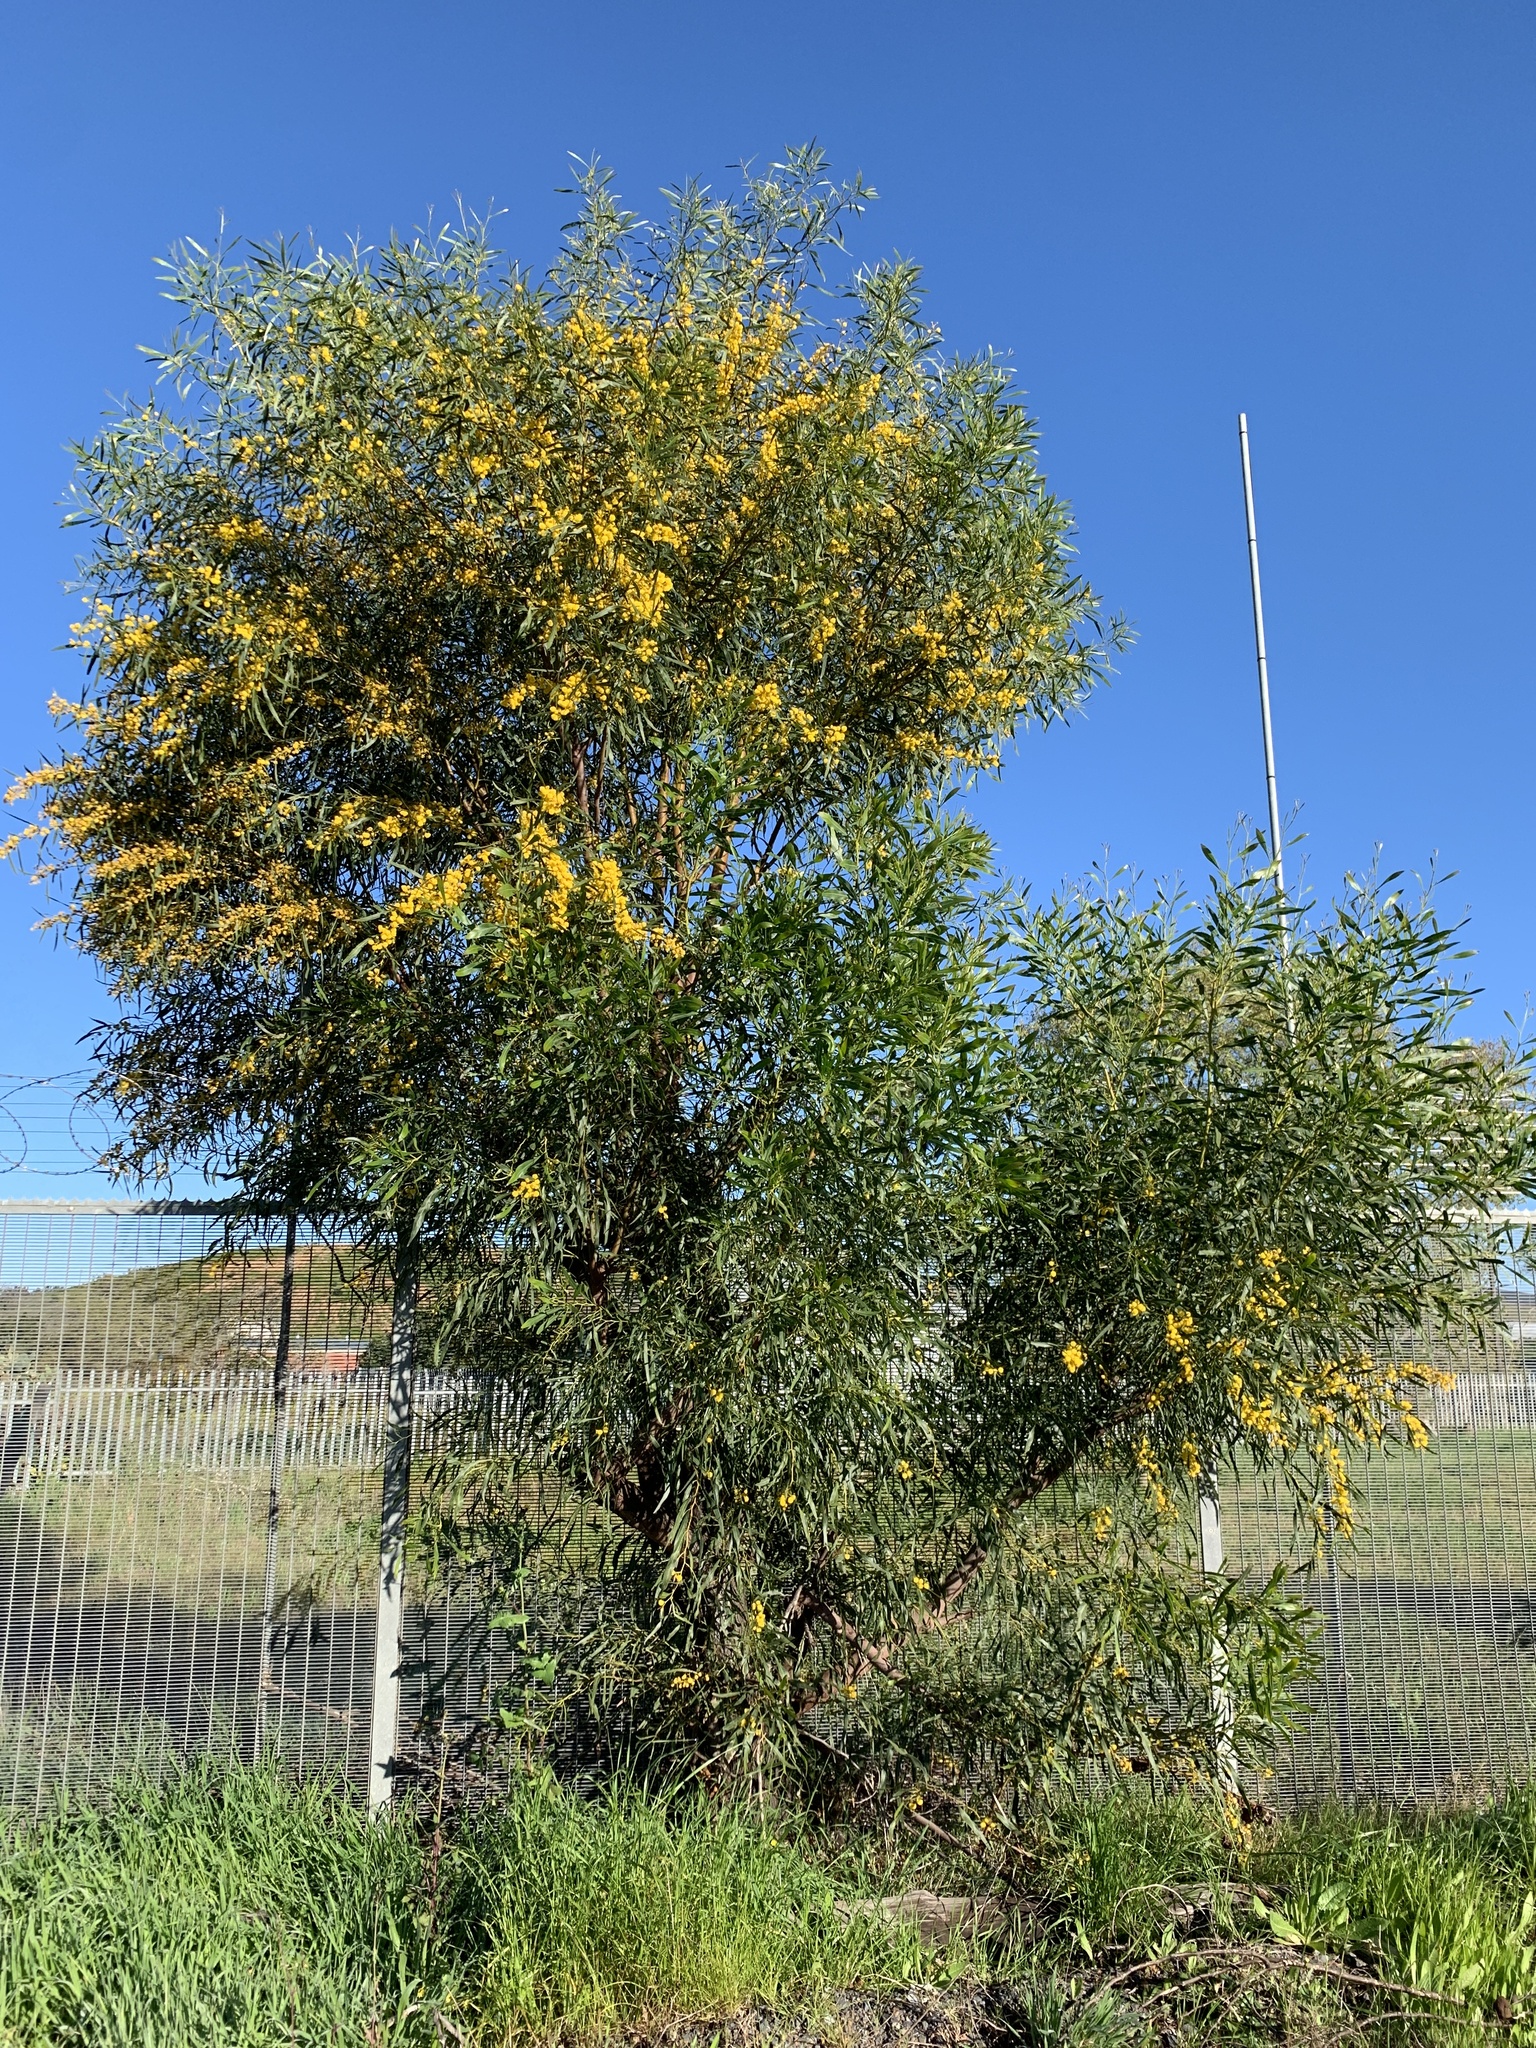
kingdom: Plantae
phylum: Tracheophyta
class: Magnoliopsida
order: Fabales
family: Fabaceae
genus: Acacia
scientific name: Acacia saligna
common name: Orange wattle
